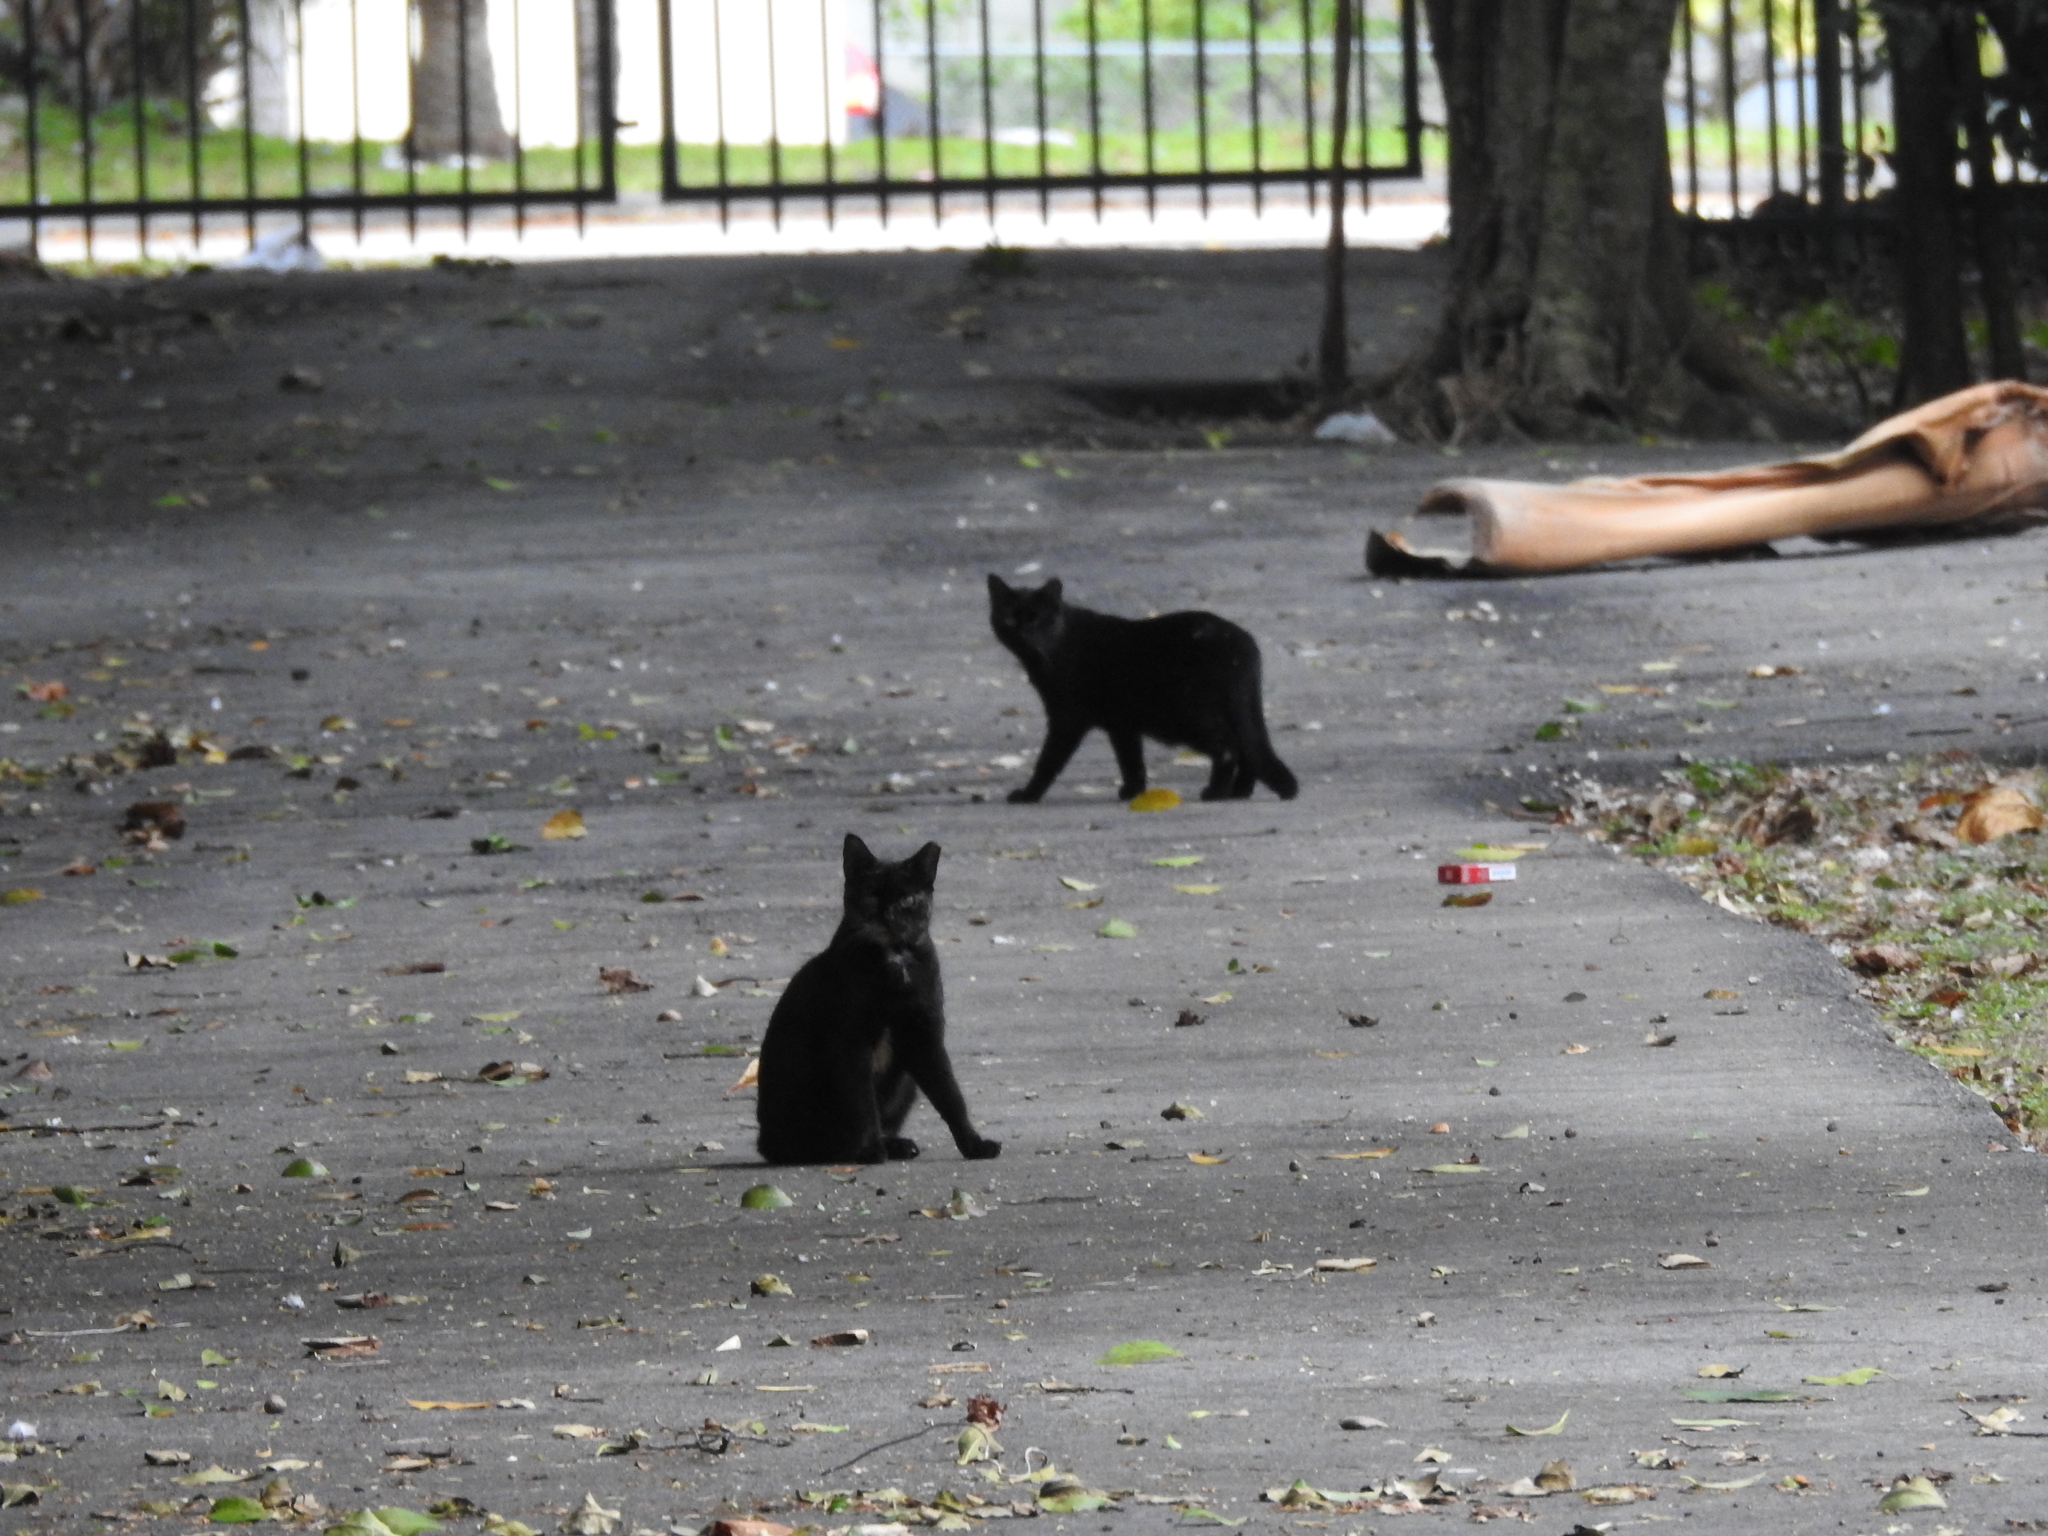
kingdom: Animalia
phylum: Chordata
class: Mammalia
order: Carnivora
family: Felidae
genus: Felis
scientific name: Felis catus
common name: Domestic cat
